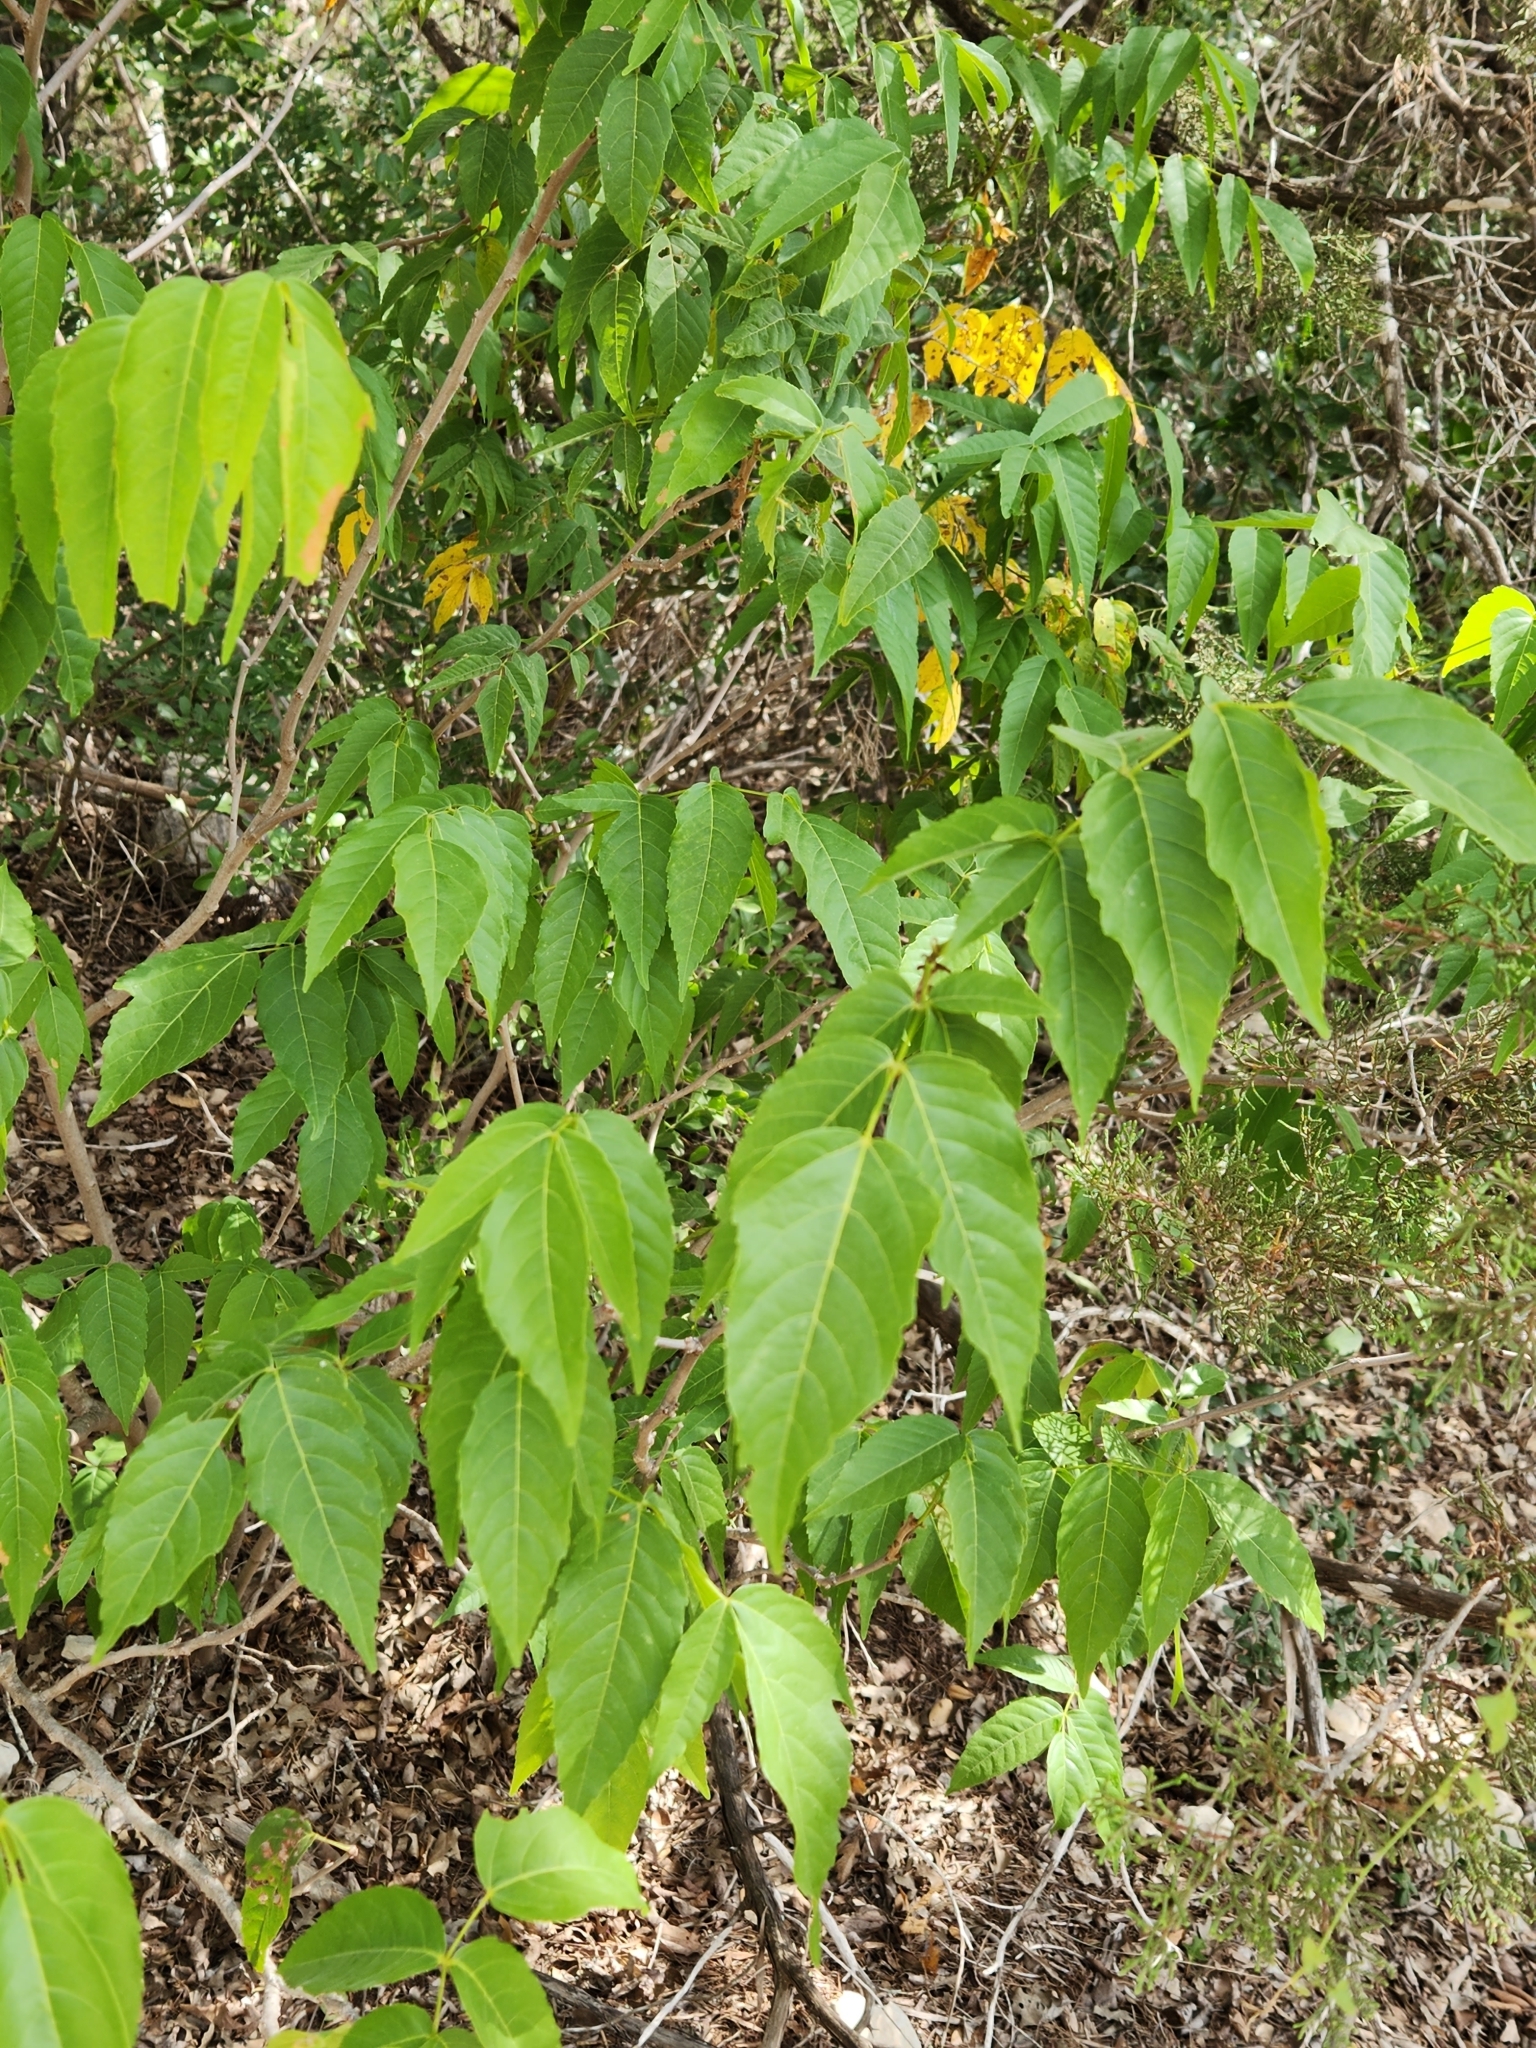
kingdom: Plantae
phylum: Tracheophyta
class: Magnoliopsida
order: Sapindales
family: Sapindaceae
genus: Ungnadia
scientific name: Ungnadia speciosa
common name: Texas-buckeye
